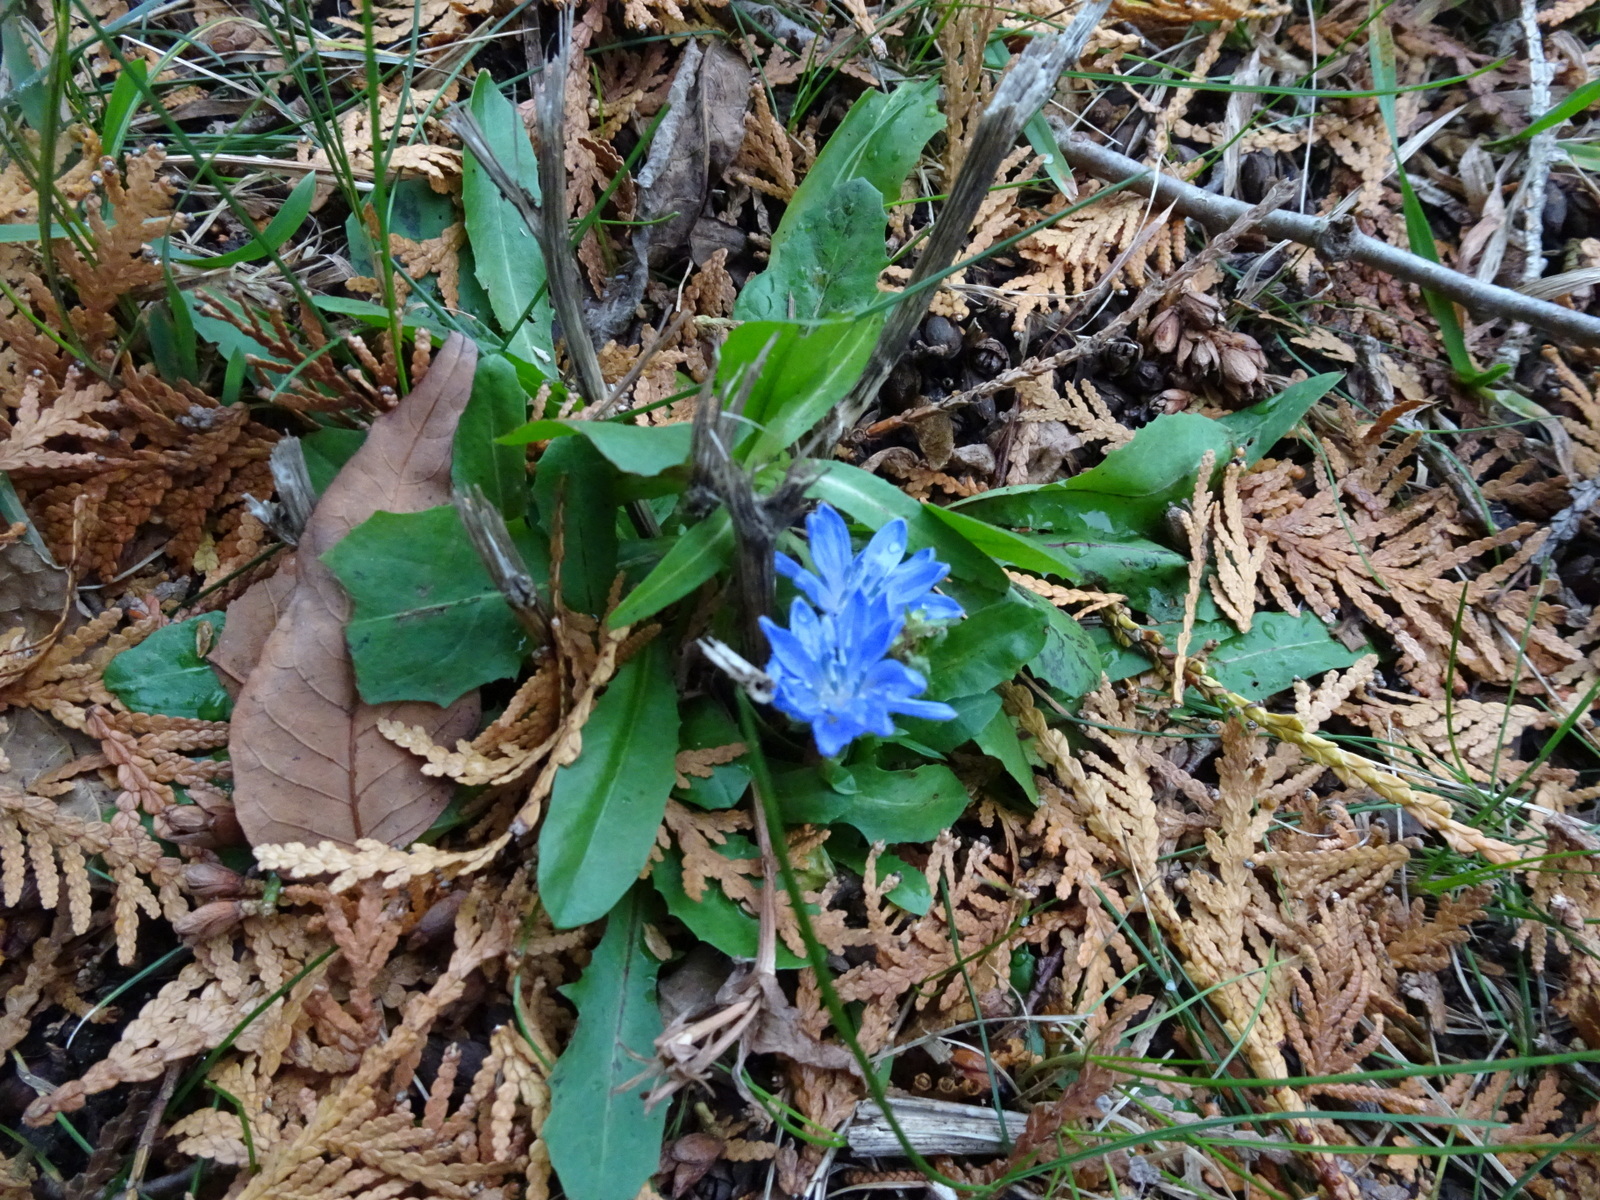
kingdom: Plantae
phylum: Tracheophyta
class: Magnoliopsida
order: Asterales
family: Asteraceae
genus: Cichorium
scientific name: Cichorium intybus
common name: Chicory
